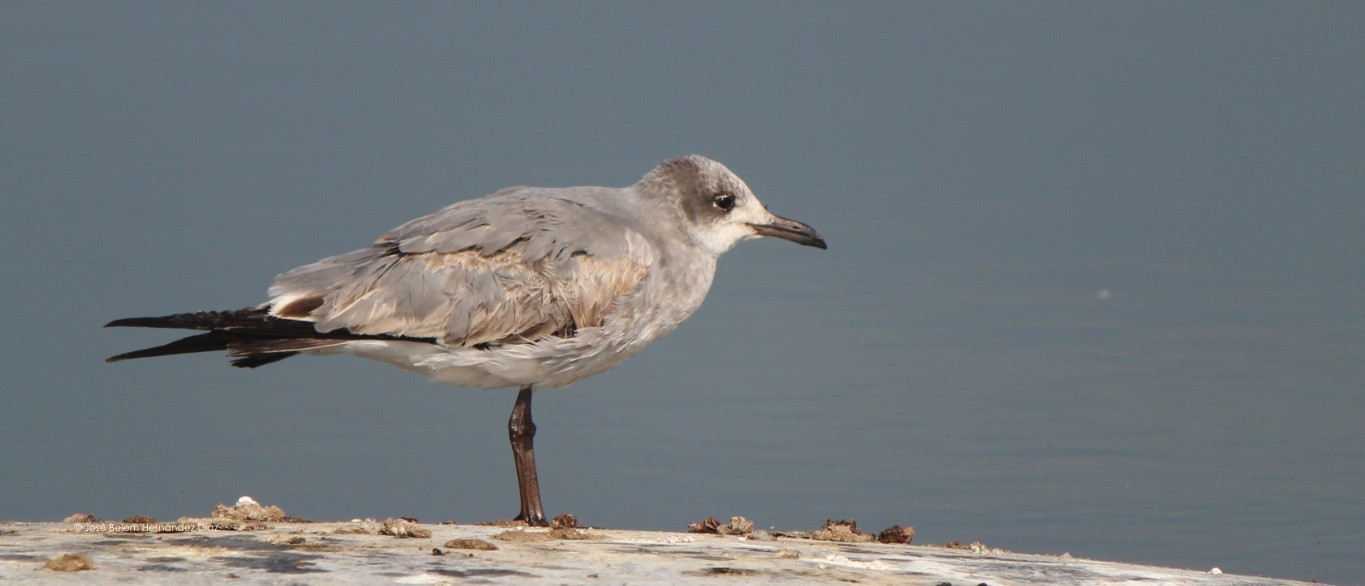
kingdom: Animalia
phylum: Chordata
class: Aves
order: Charadriiformes
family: Laridae
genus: Leucophaeus
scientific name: Leucophaeus atricilla
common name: Laughing gull
